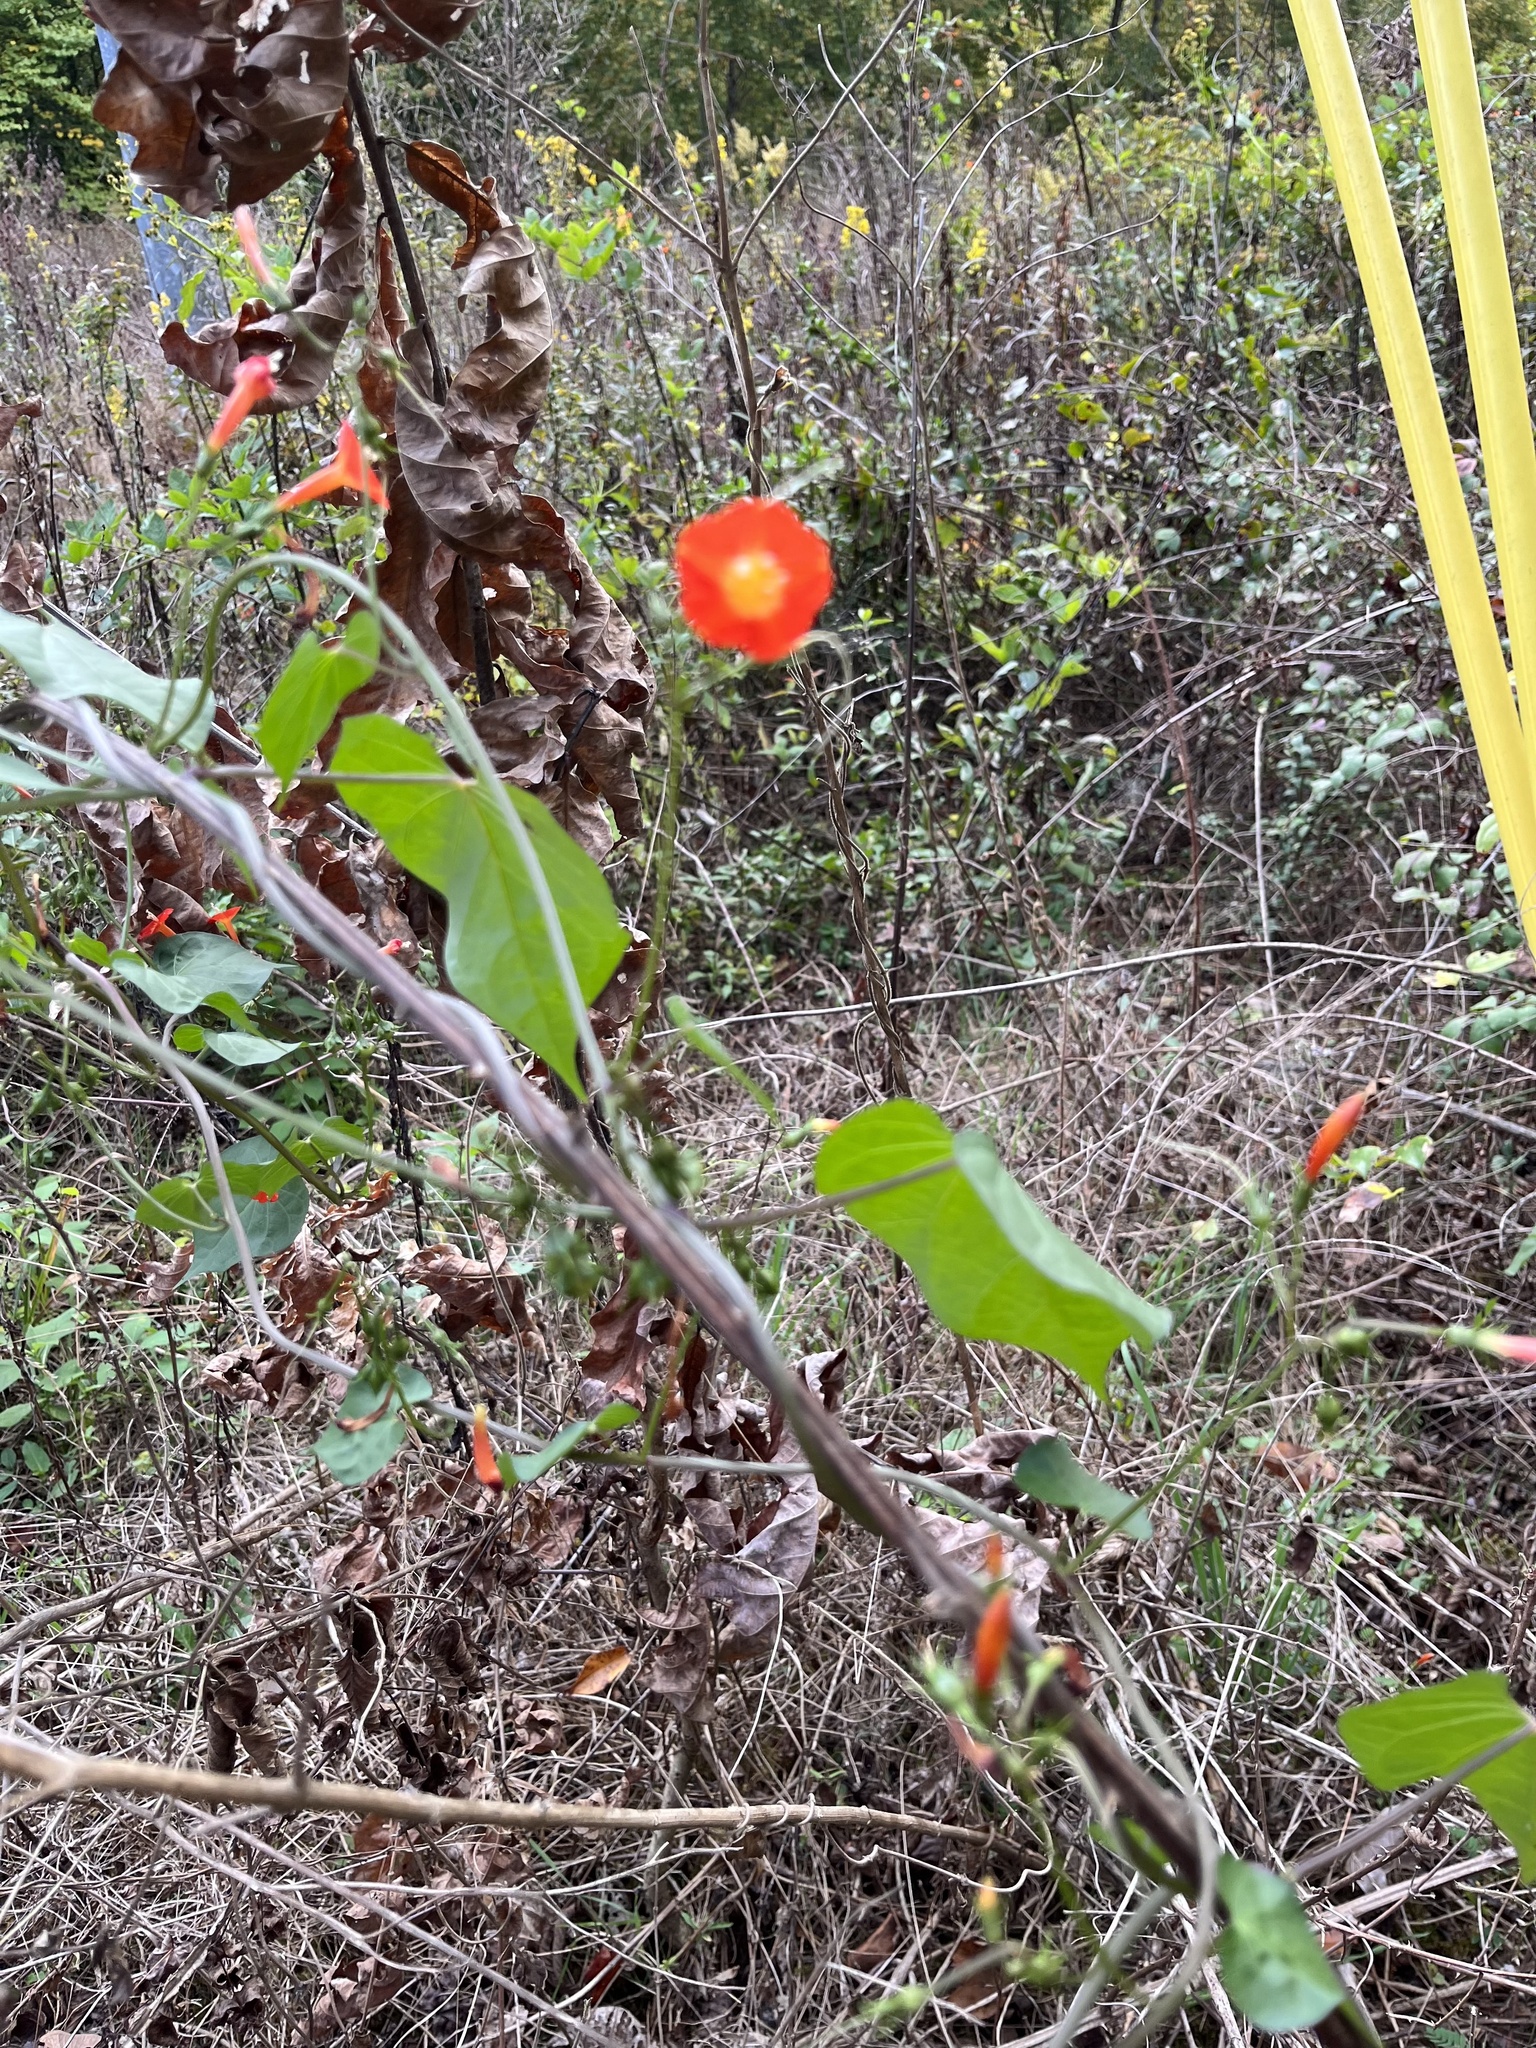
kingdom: Plantae
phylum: Tracheophyta
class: Magnoliopsida
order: Solanales
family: Convolvulaceae
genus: Ipomoea
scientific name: Ipomoea coccinea
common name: Red morning-glory
